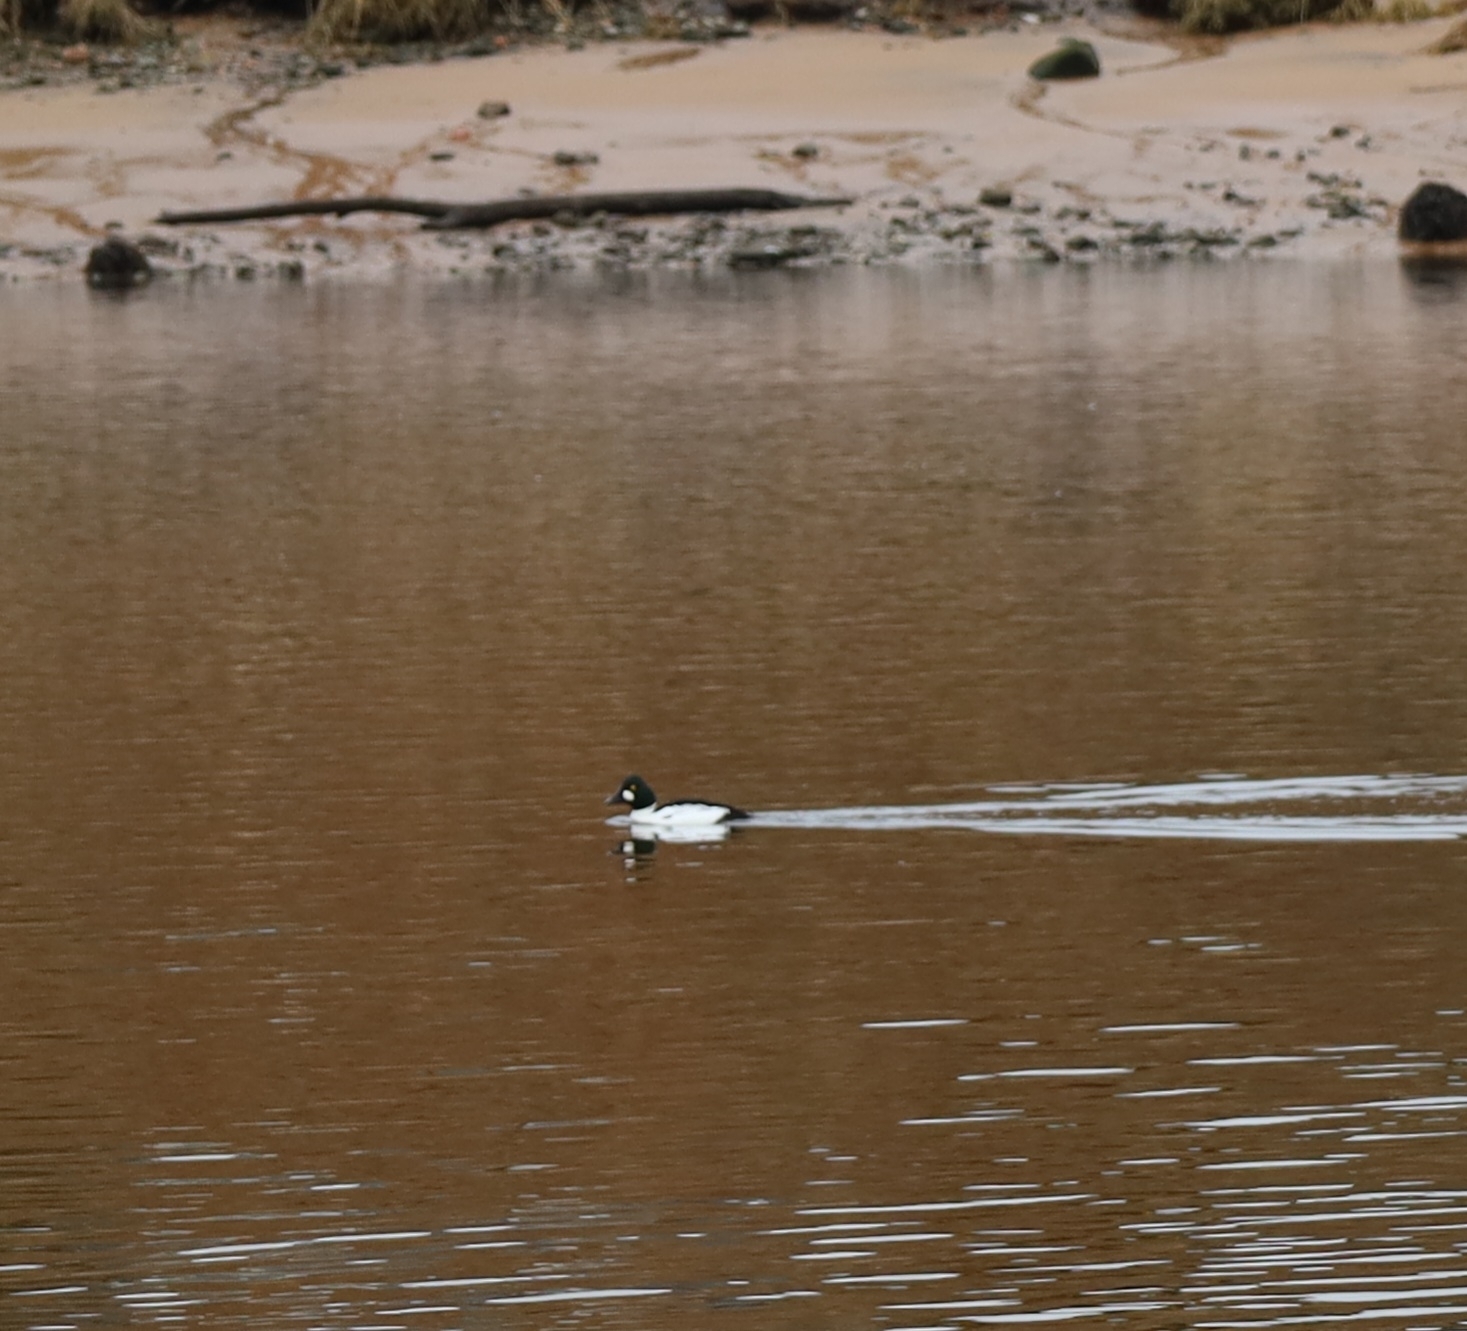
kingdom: Animalia
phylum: Chordata
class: Aves
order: Anseriformes
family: Anatidae
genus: Bucephala
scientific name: Bucephala clangula
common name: Common goldeneye
